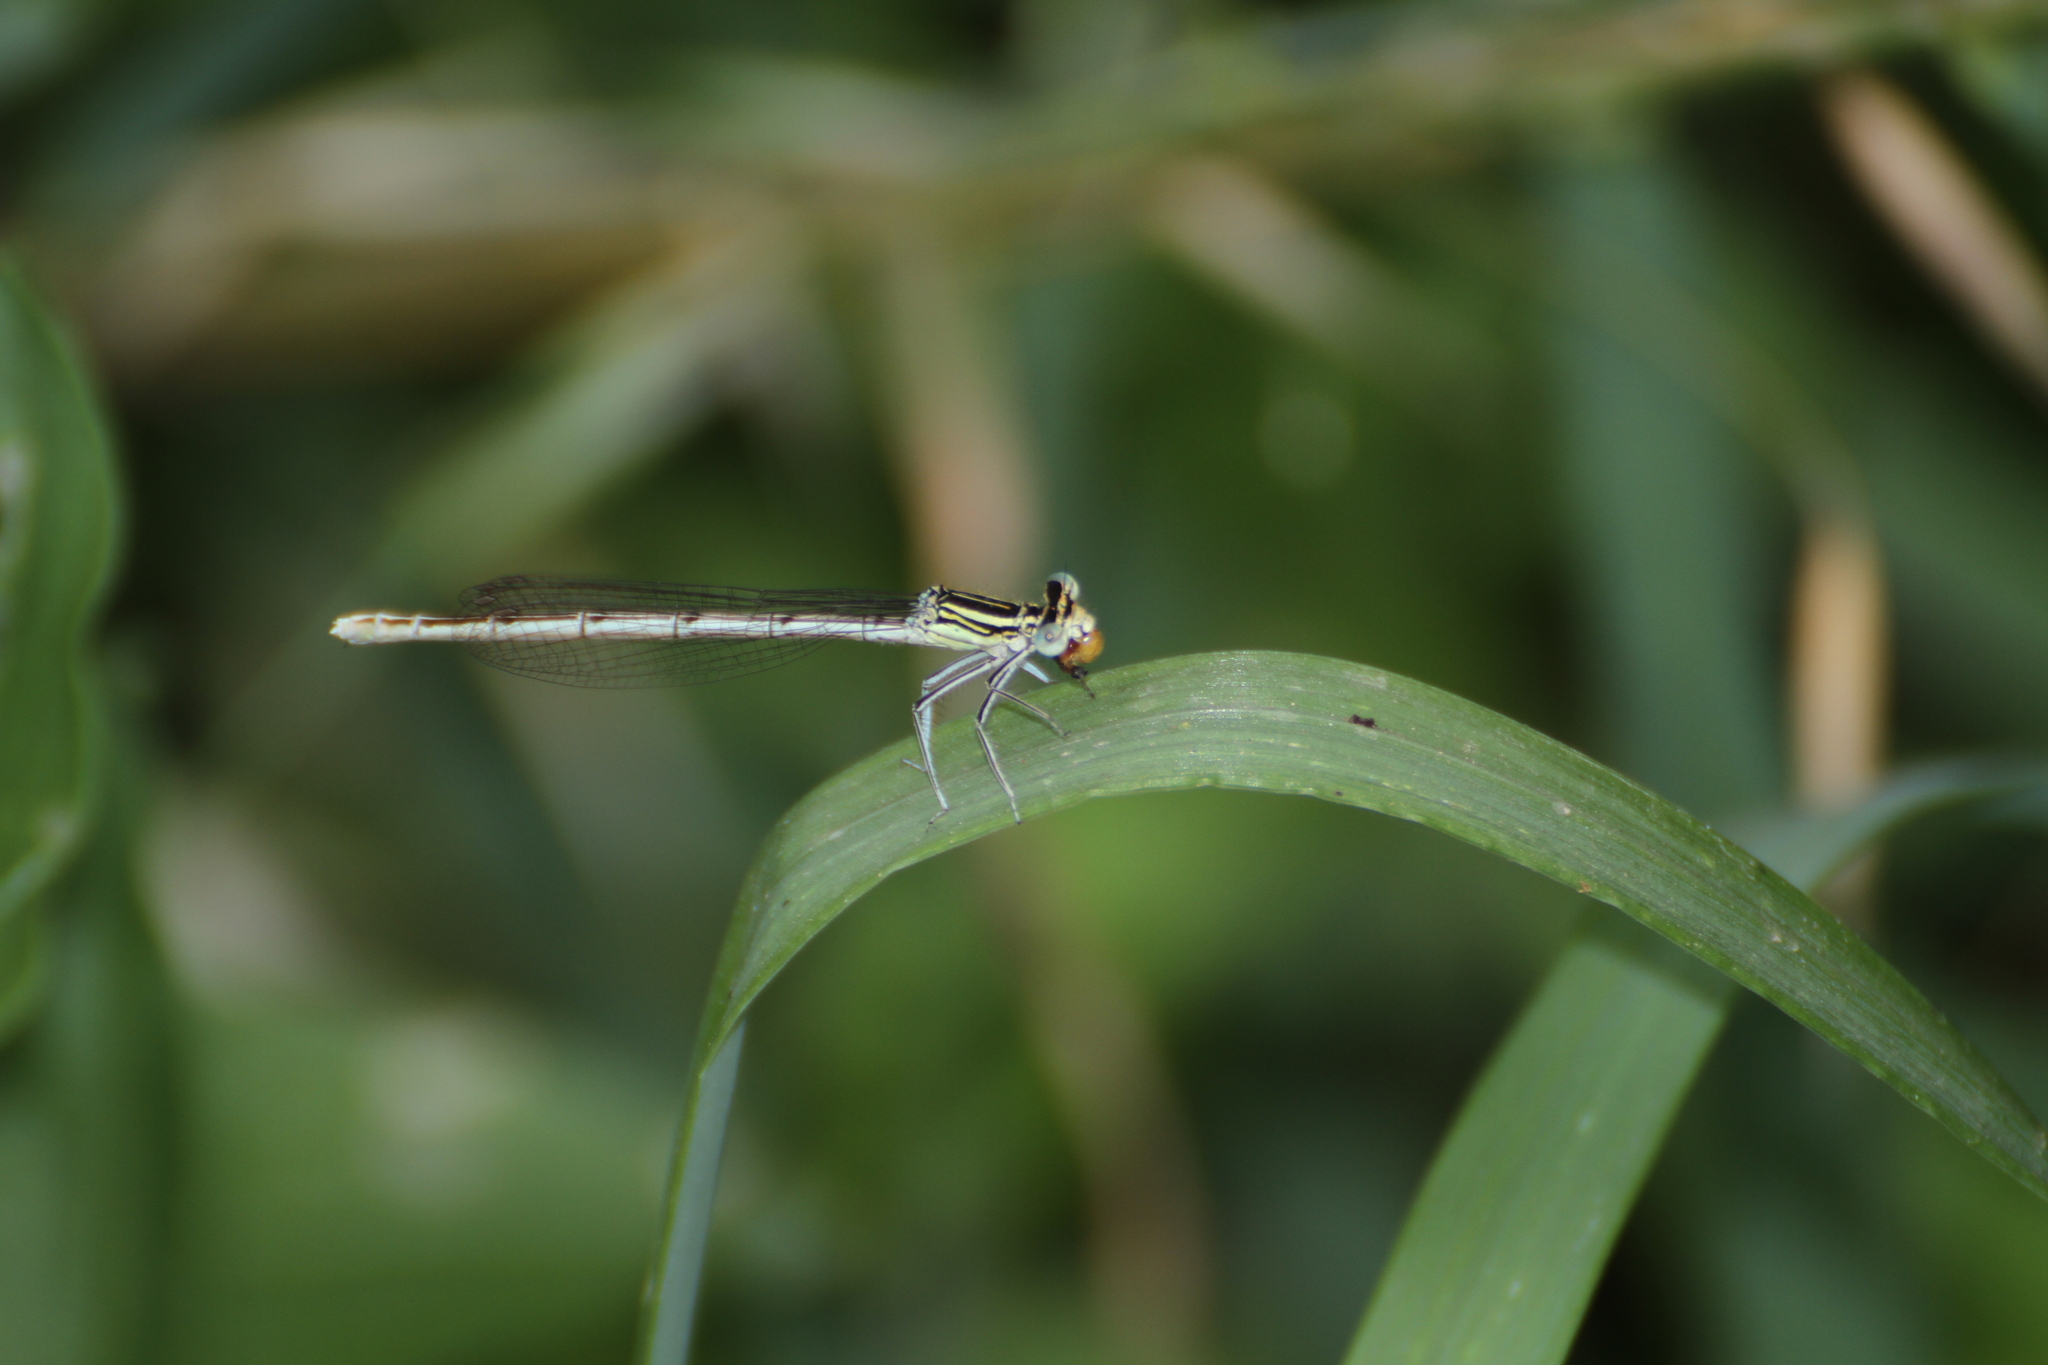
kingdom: Animalia
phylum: Arthropoda
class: Insecta
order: Odonata
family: Platycnemididae
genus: Platycnemis
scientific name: Platycnemis pennipes
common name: White-legged damselfly
